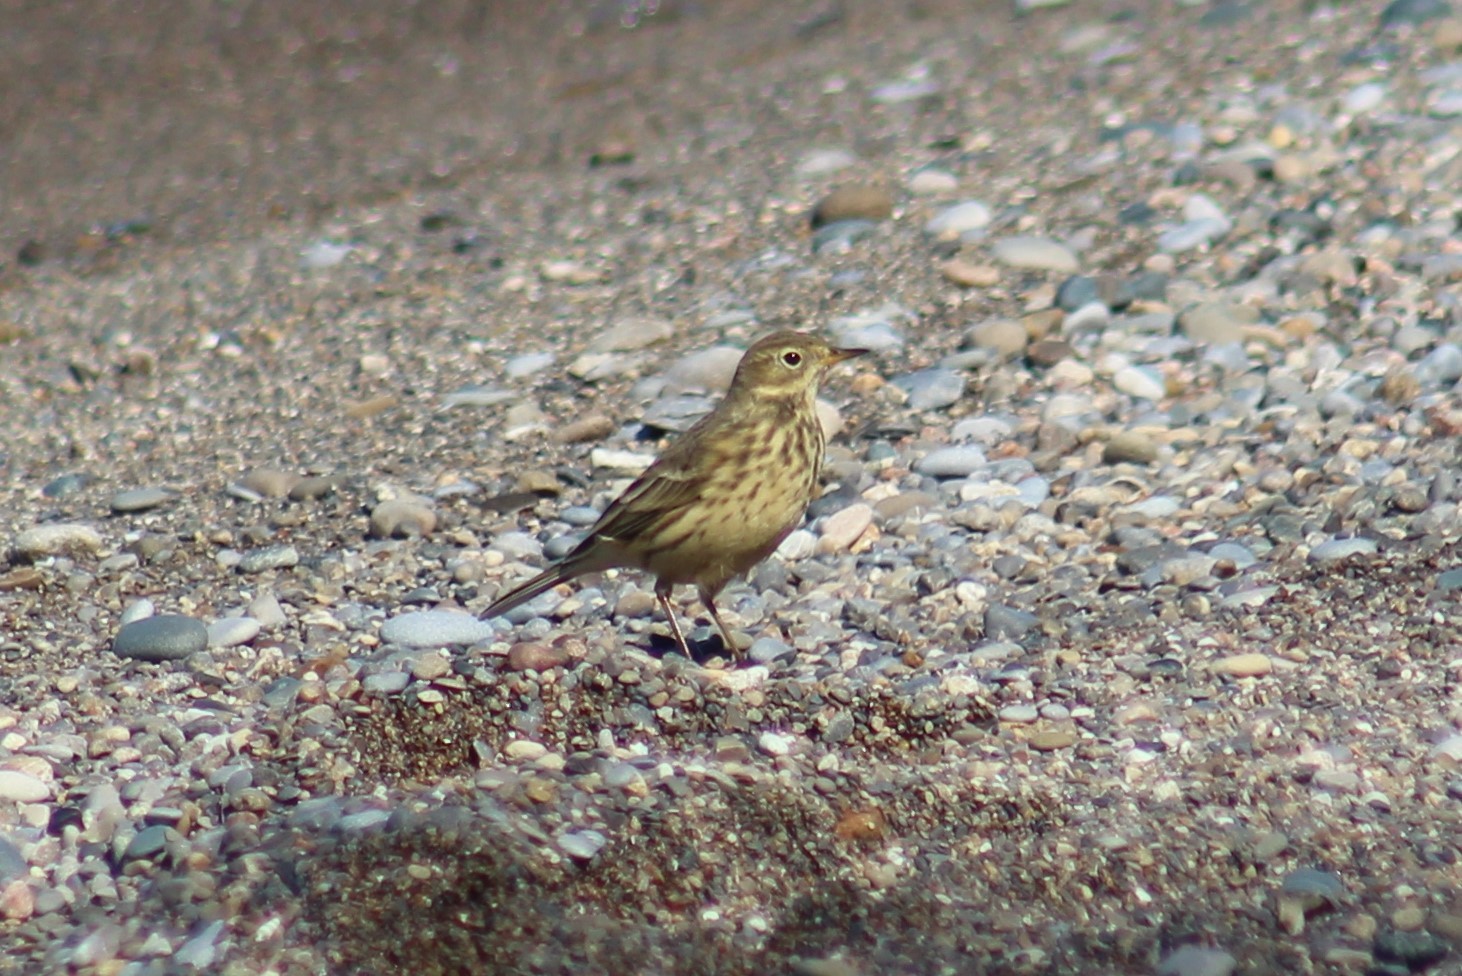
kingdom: Animalia
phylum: Chordata
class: Aves
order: Passeriformes
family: Motacillidae
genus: Anthus
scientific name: Anthus rubescens
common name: Buff-bellied pipit
